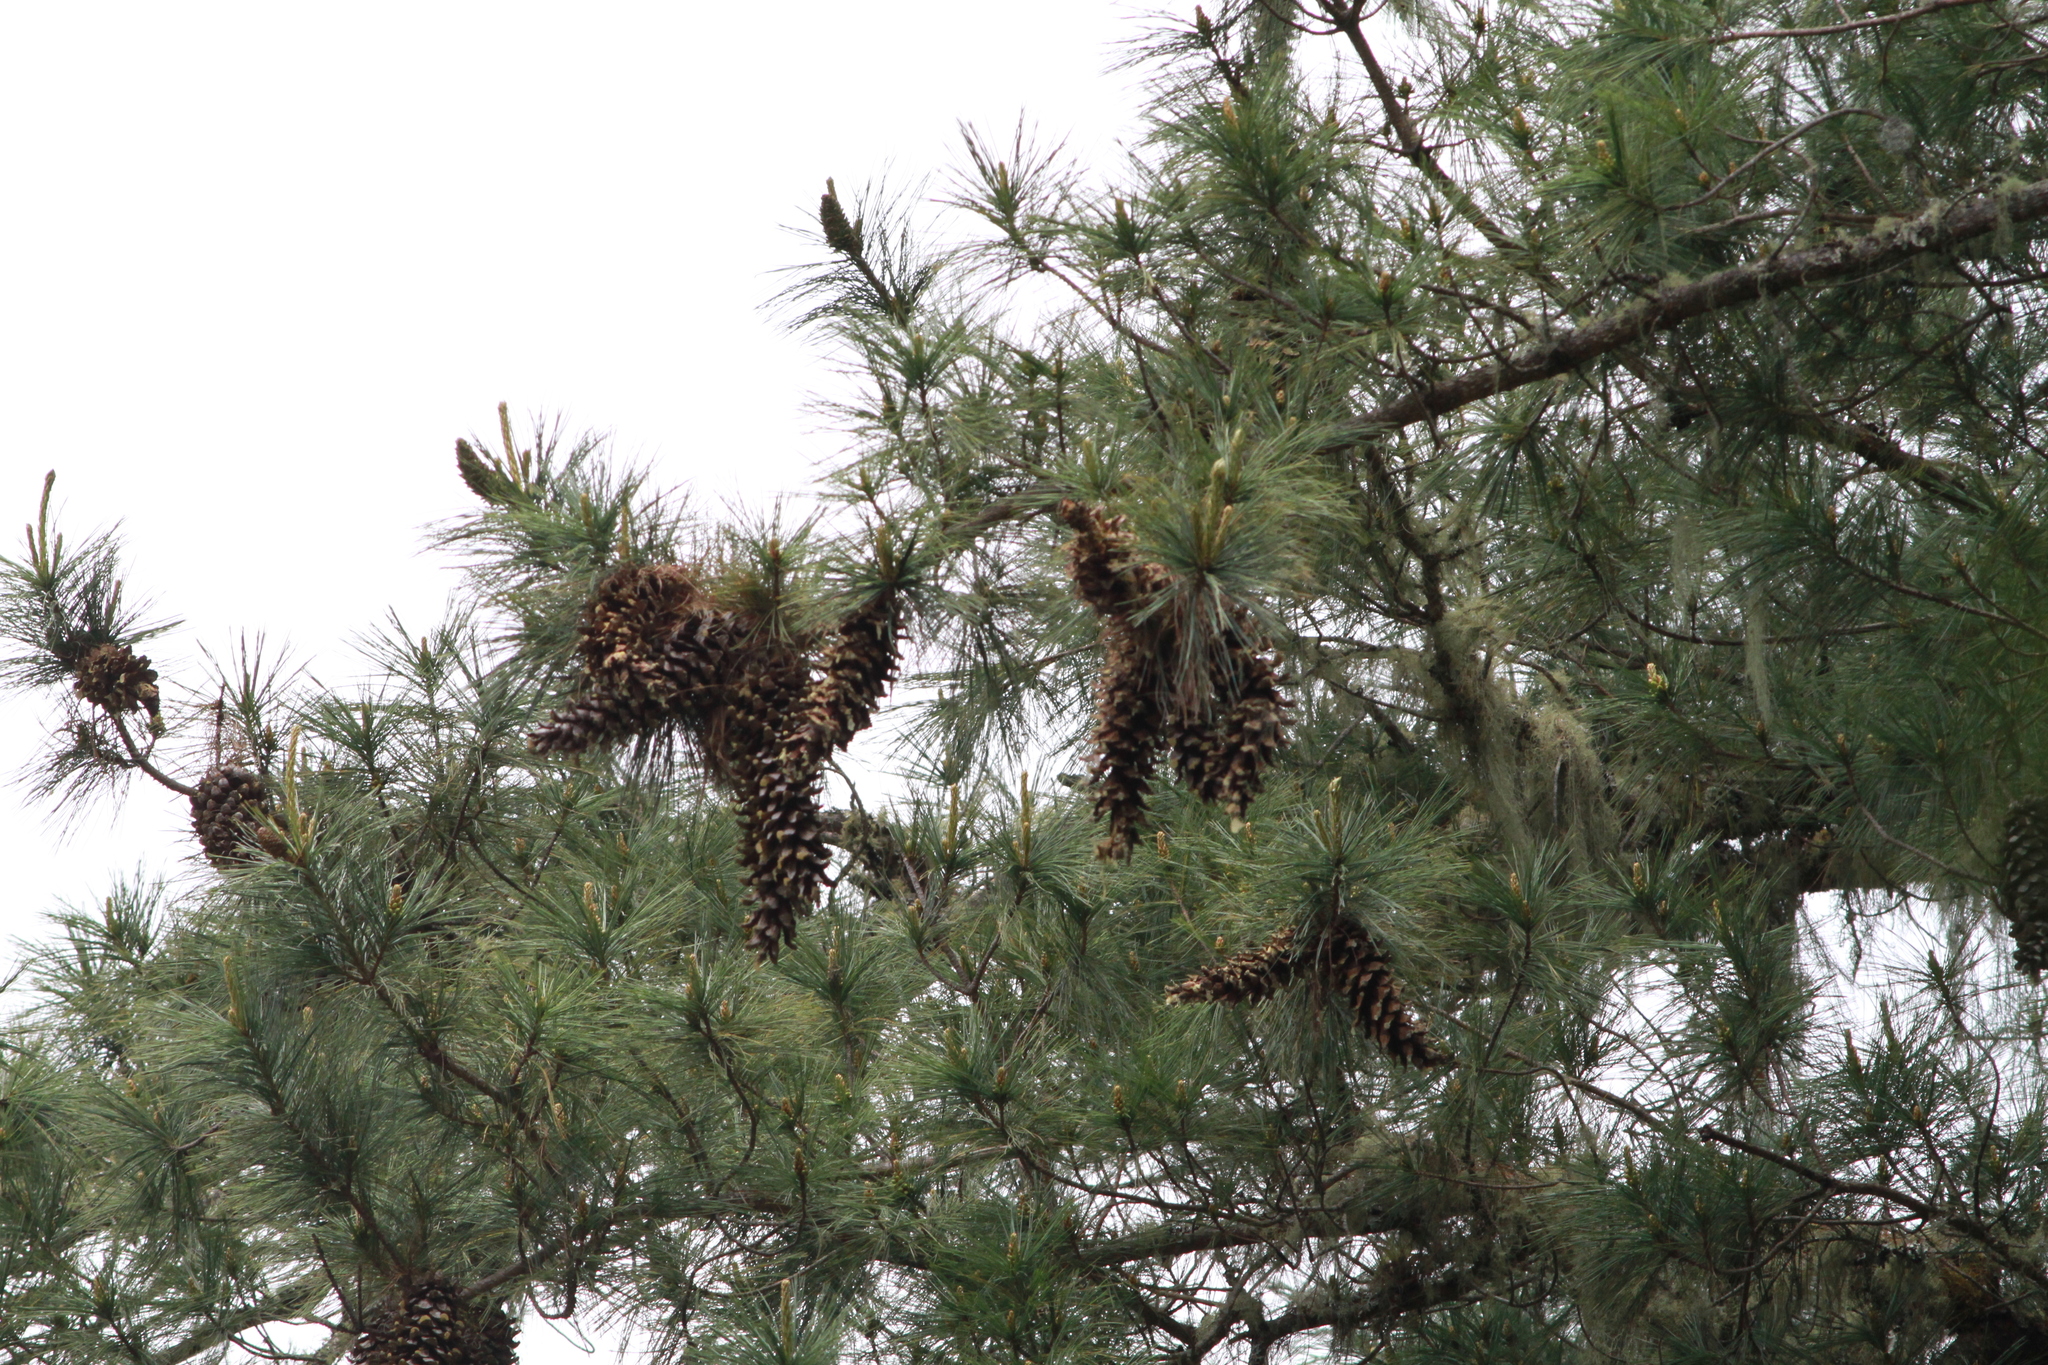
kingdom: Plantae
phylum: Tracheophyta
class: Pinopsida
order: Pinales
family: Pinaceae
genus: Pinus
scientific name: Pinus ayacahuite
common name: Mexican white pine
